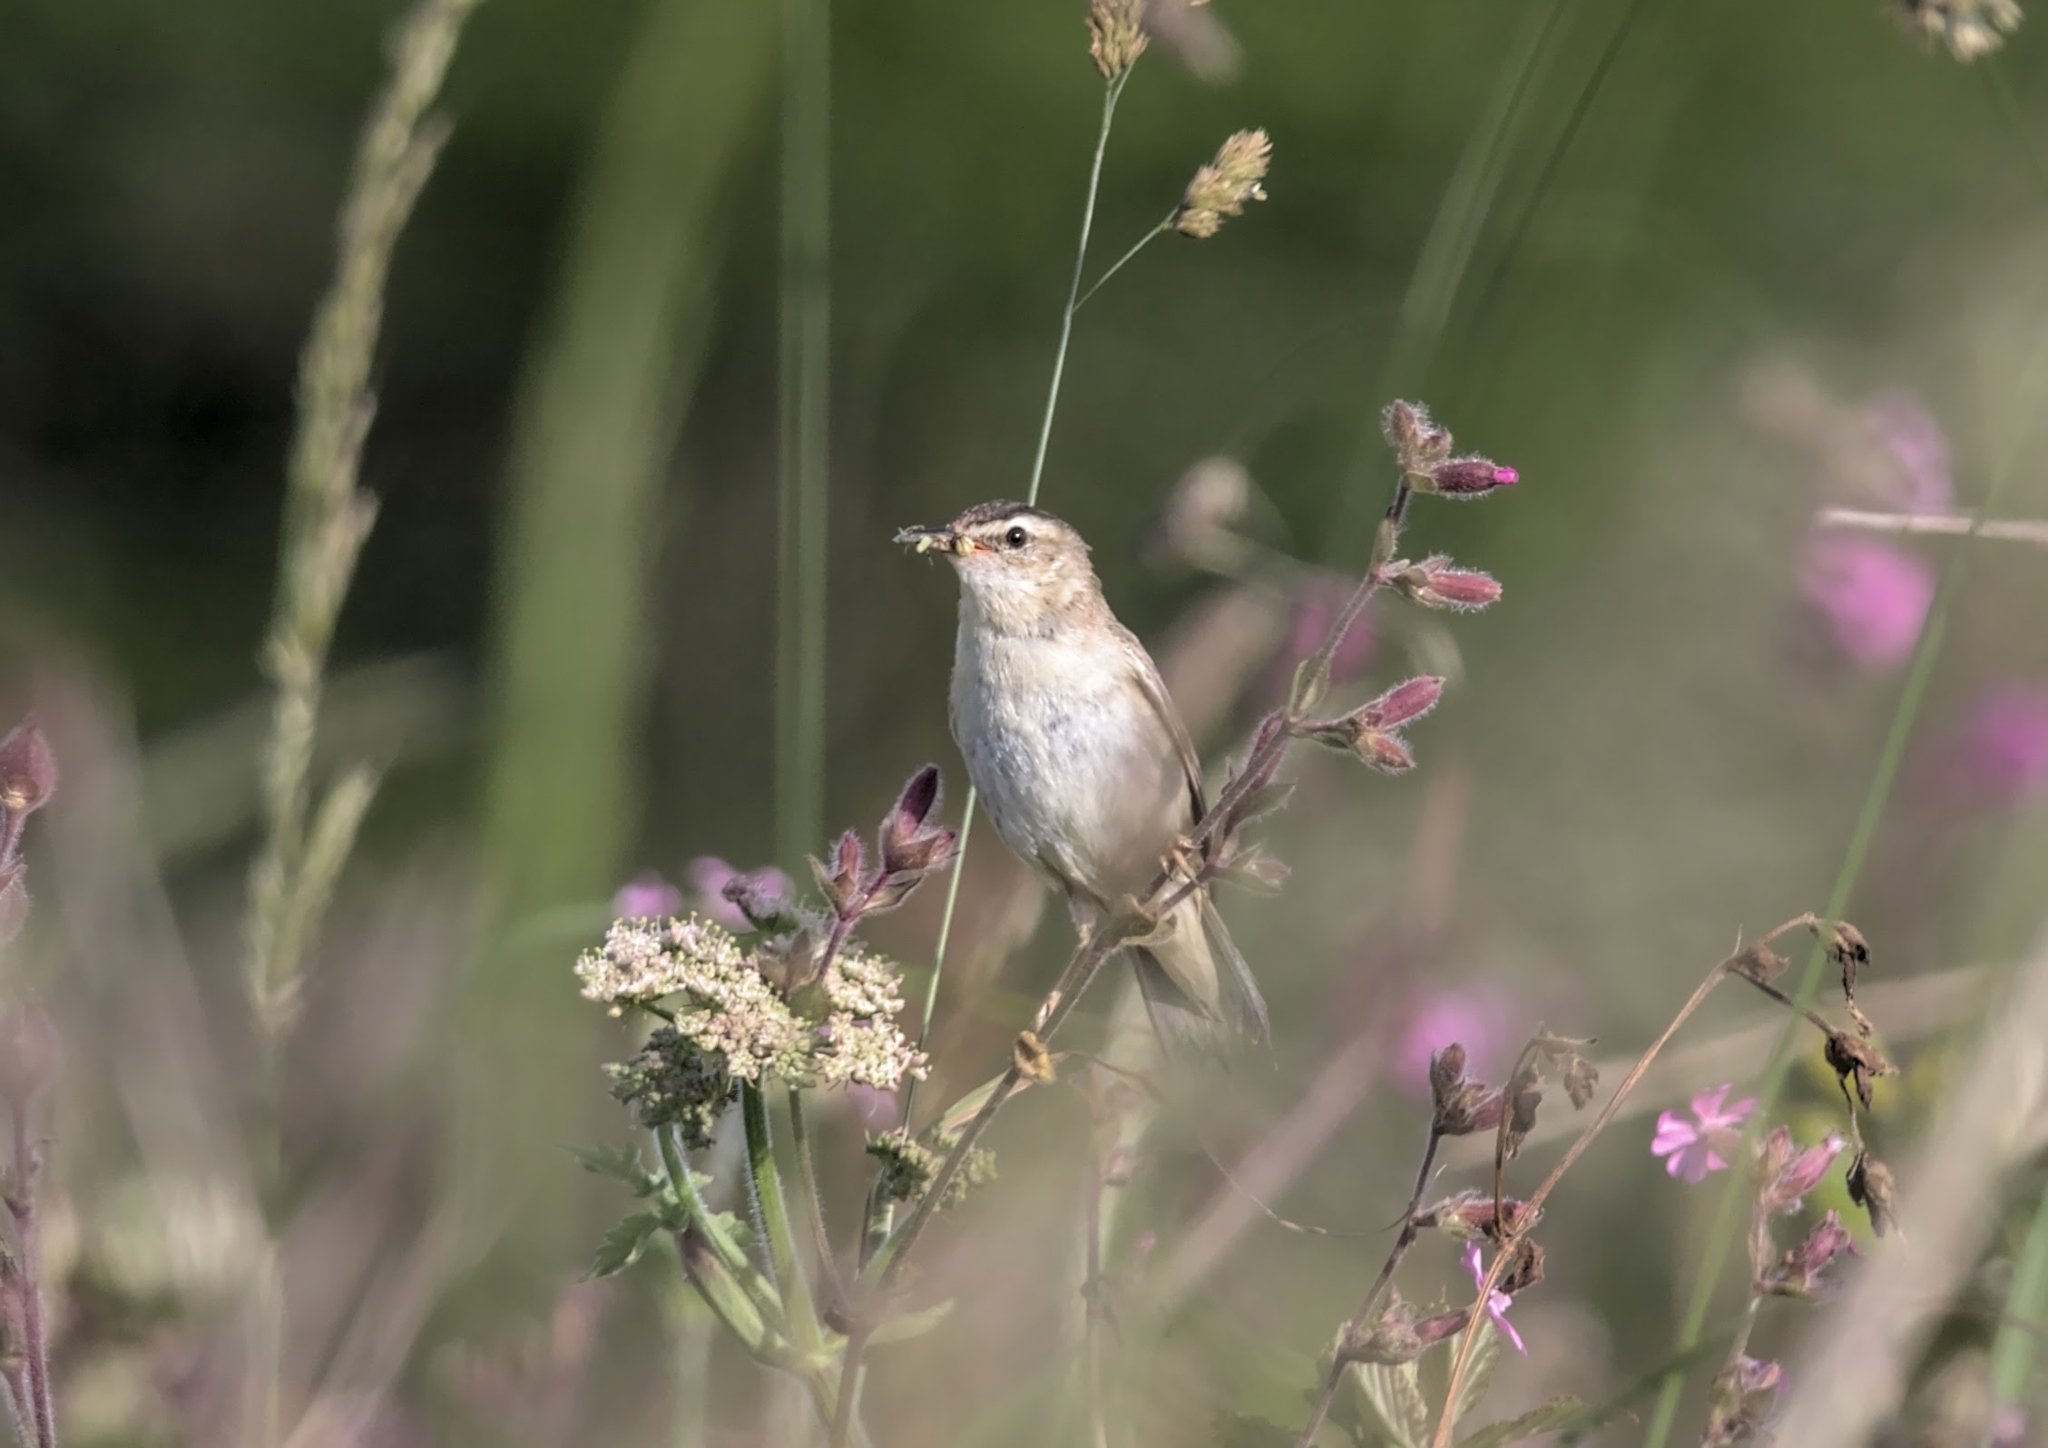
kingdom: Animalia
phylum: Chordata
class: Aves
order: Passeriformes
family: Acrocephalidae
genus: Acrocephalus
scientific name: Acrocephalus schoenobaenus
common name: Sedge warbler
